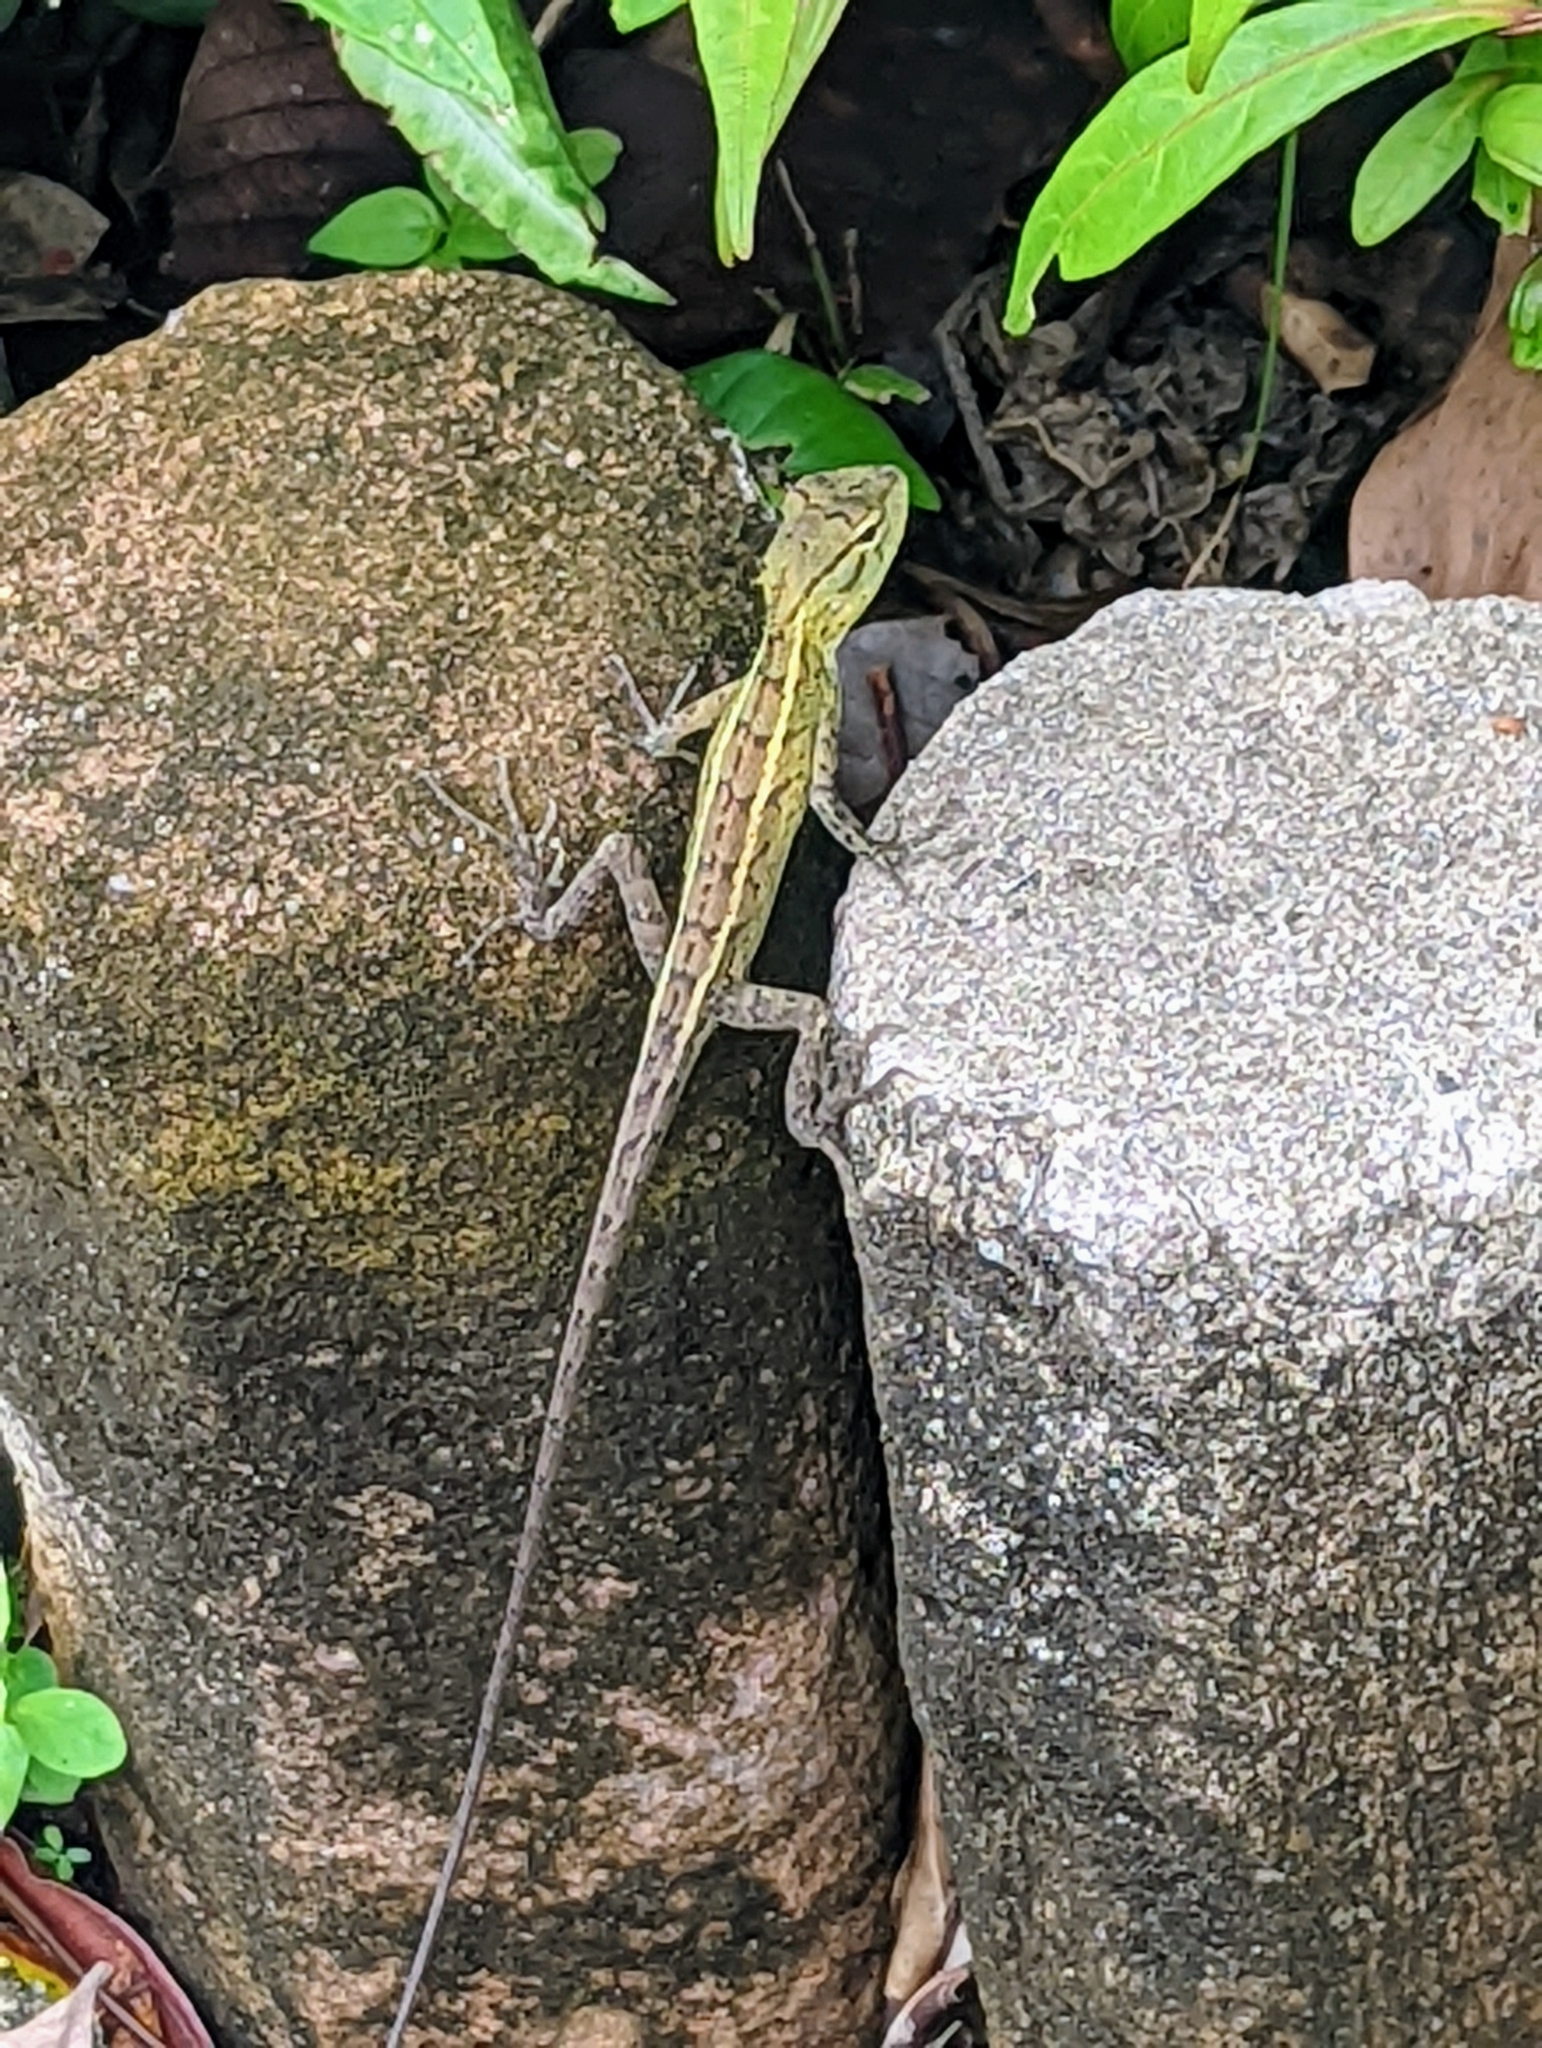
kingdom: Animalia
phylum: Chordata
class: Squamata
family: Agamidae
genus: Calotes
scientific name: Calotes versicolor
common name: Oriental garden lizard
